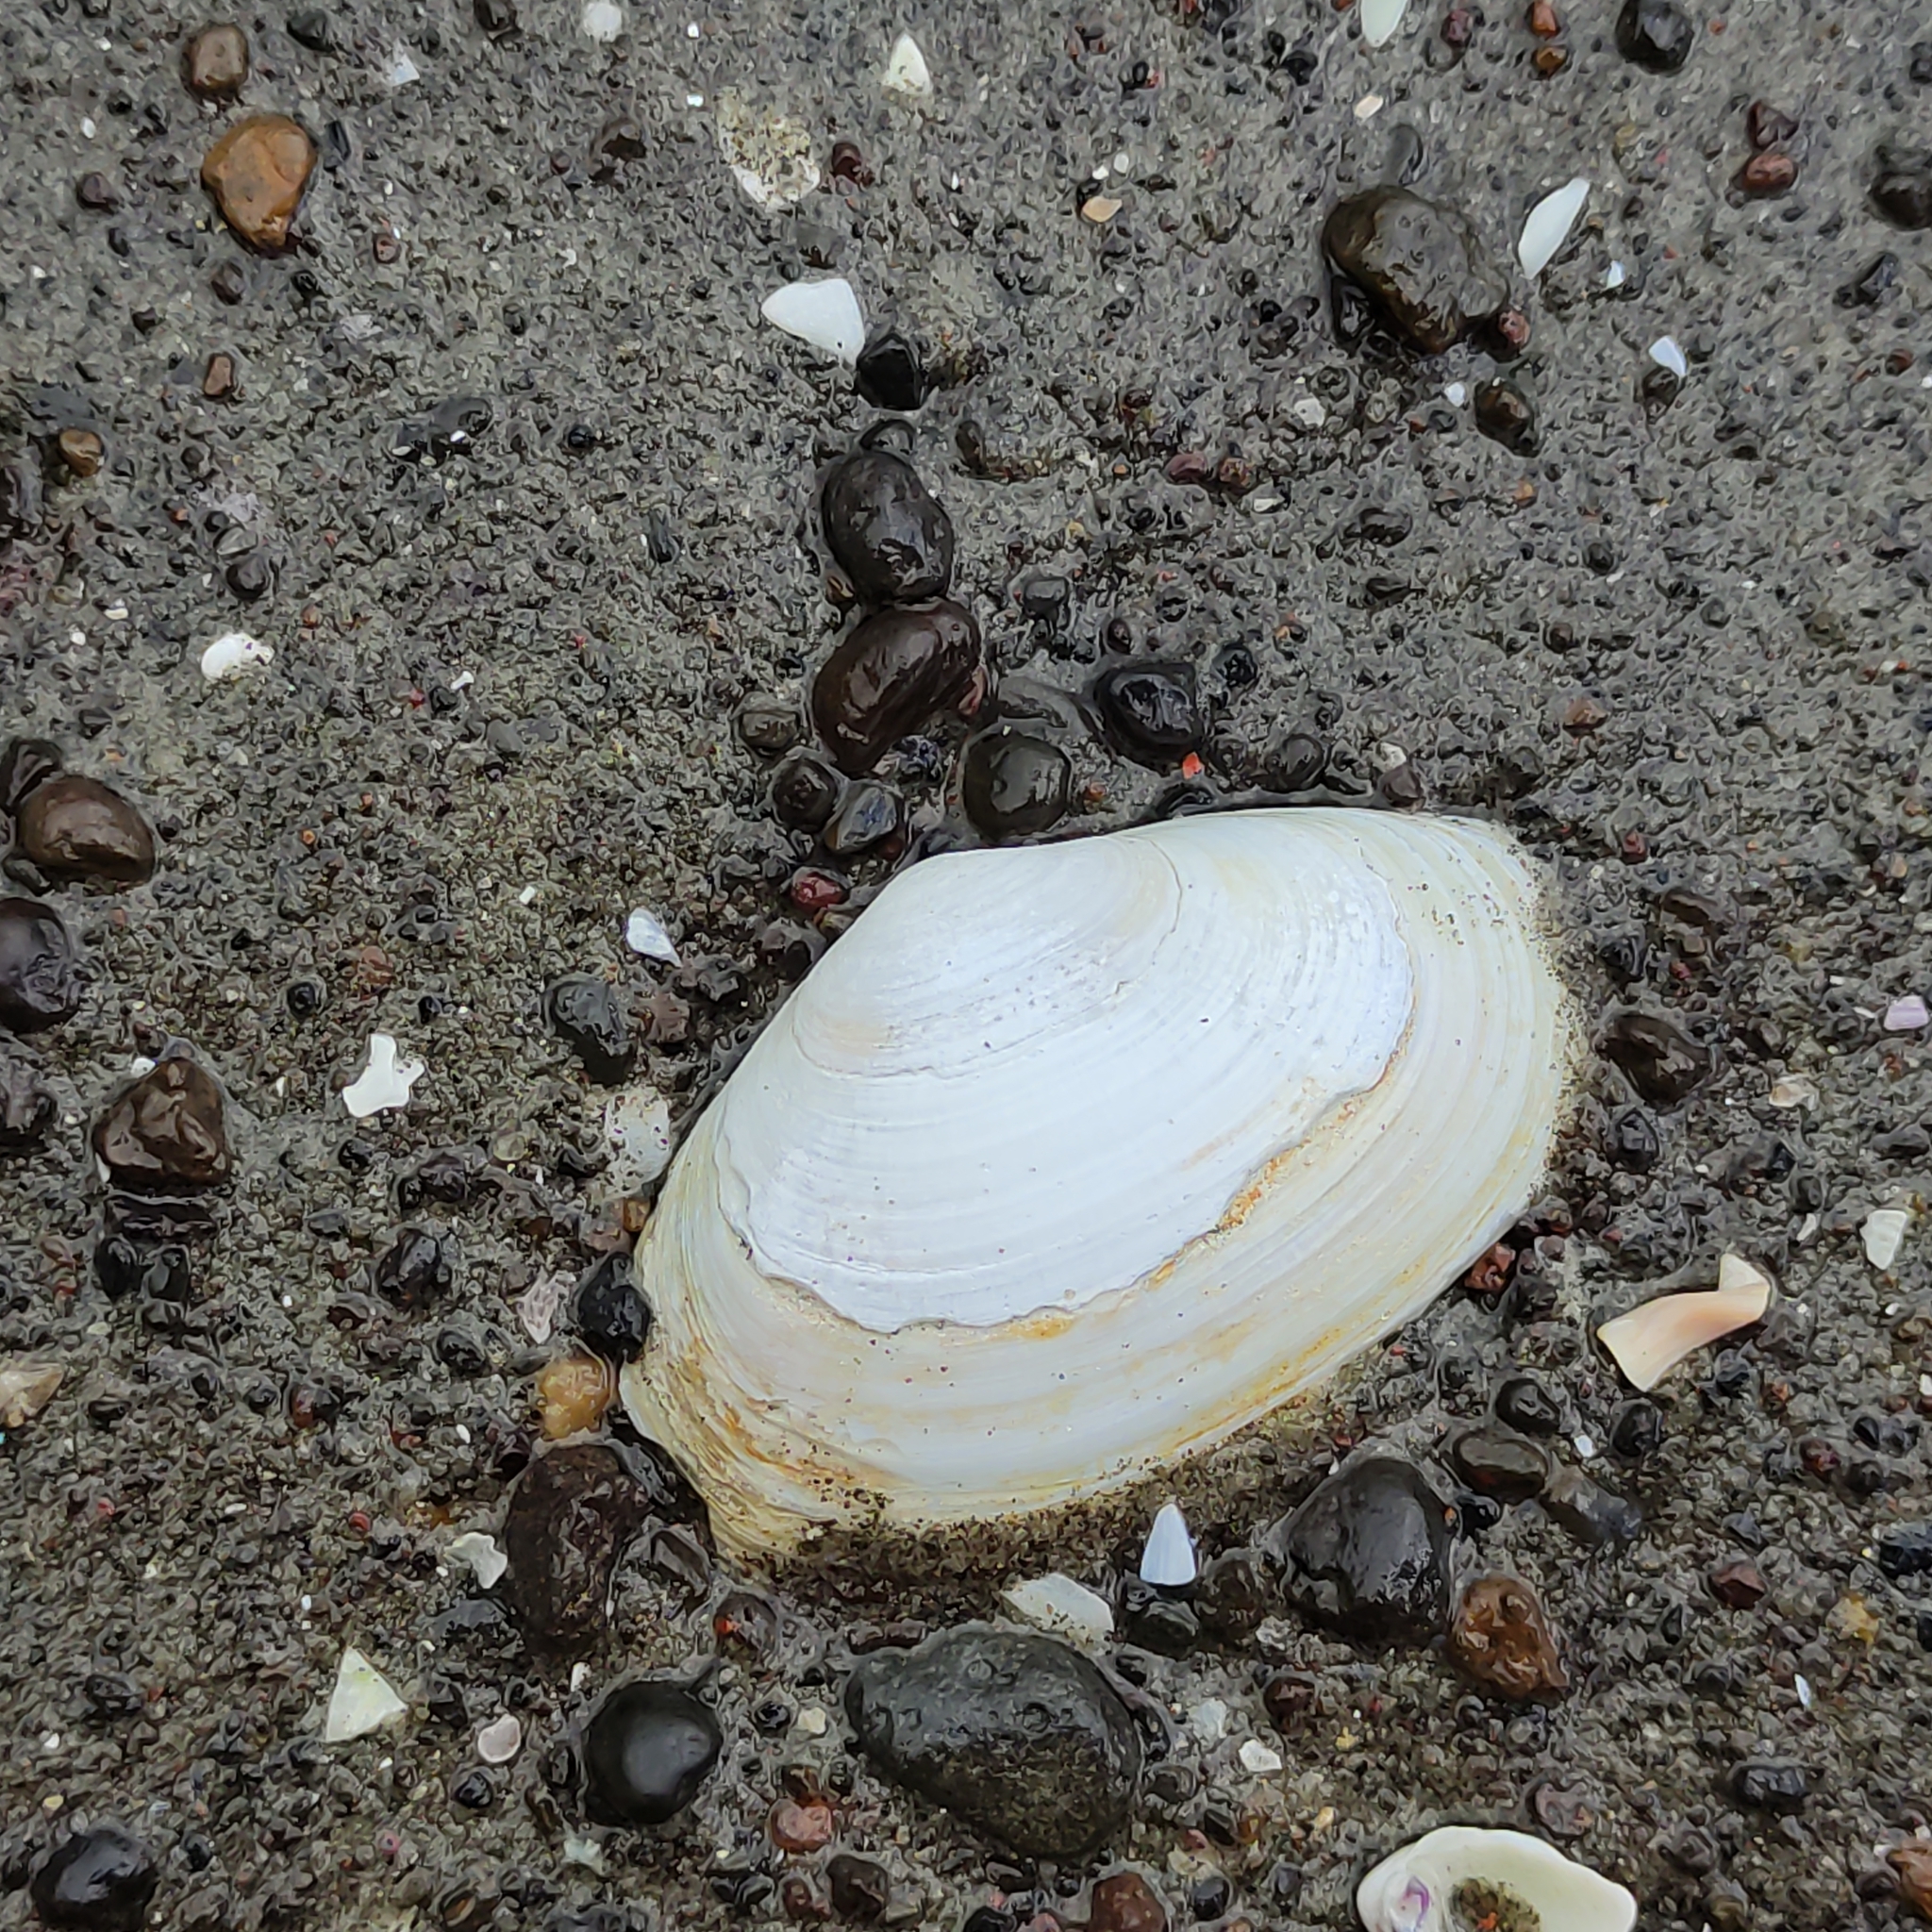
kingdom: Animalia
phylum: Mollusca
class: Bivalvia
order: Venerida
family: Mesodesmatidae
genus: Paphies
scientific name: Paphies australis
